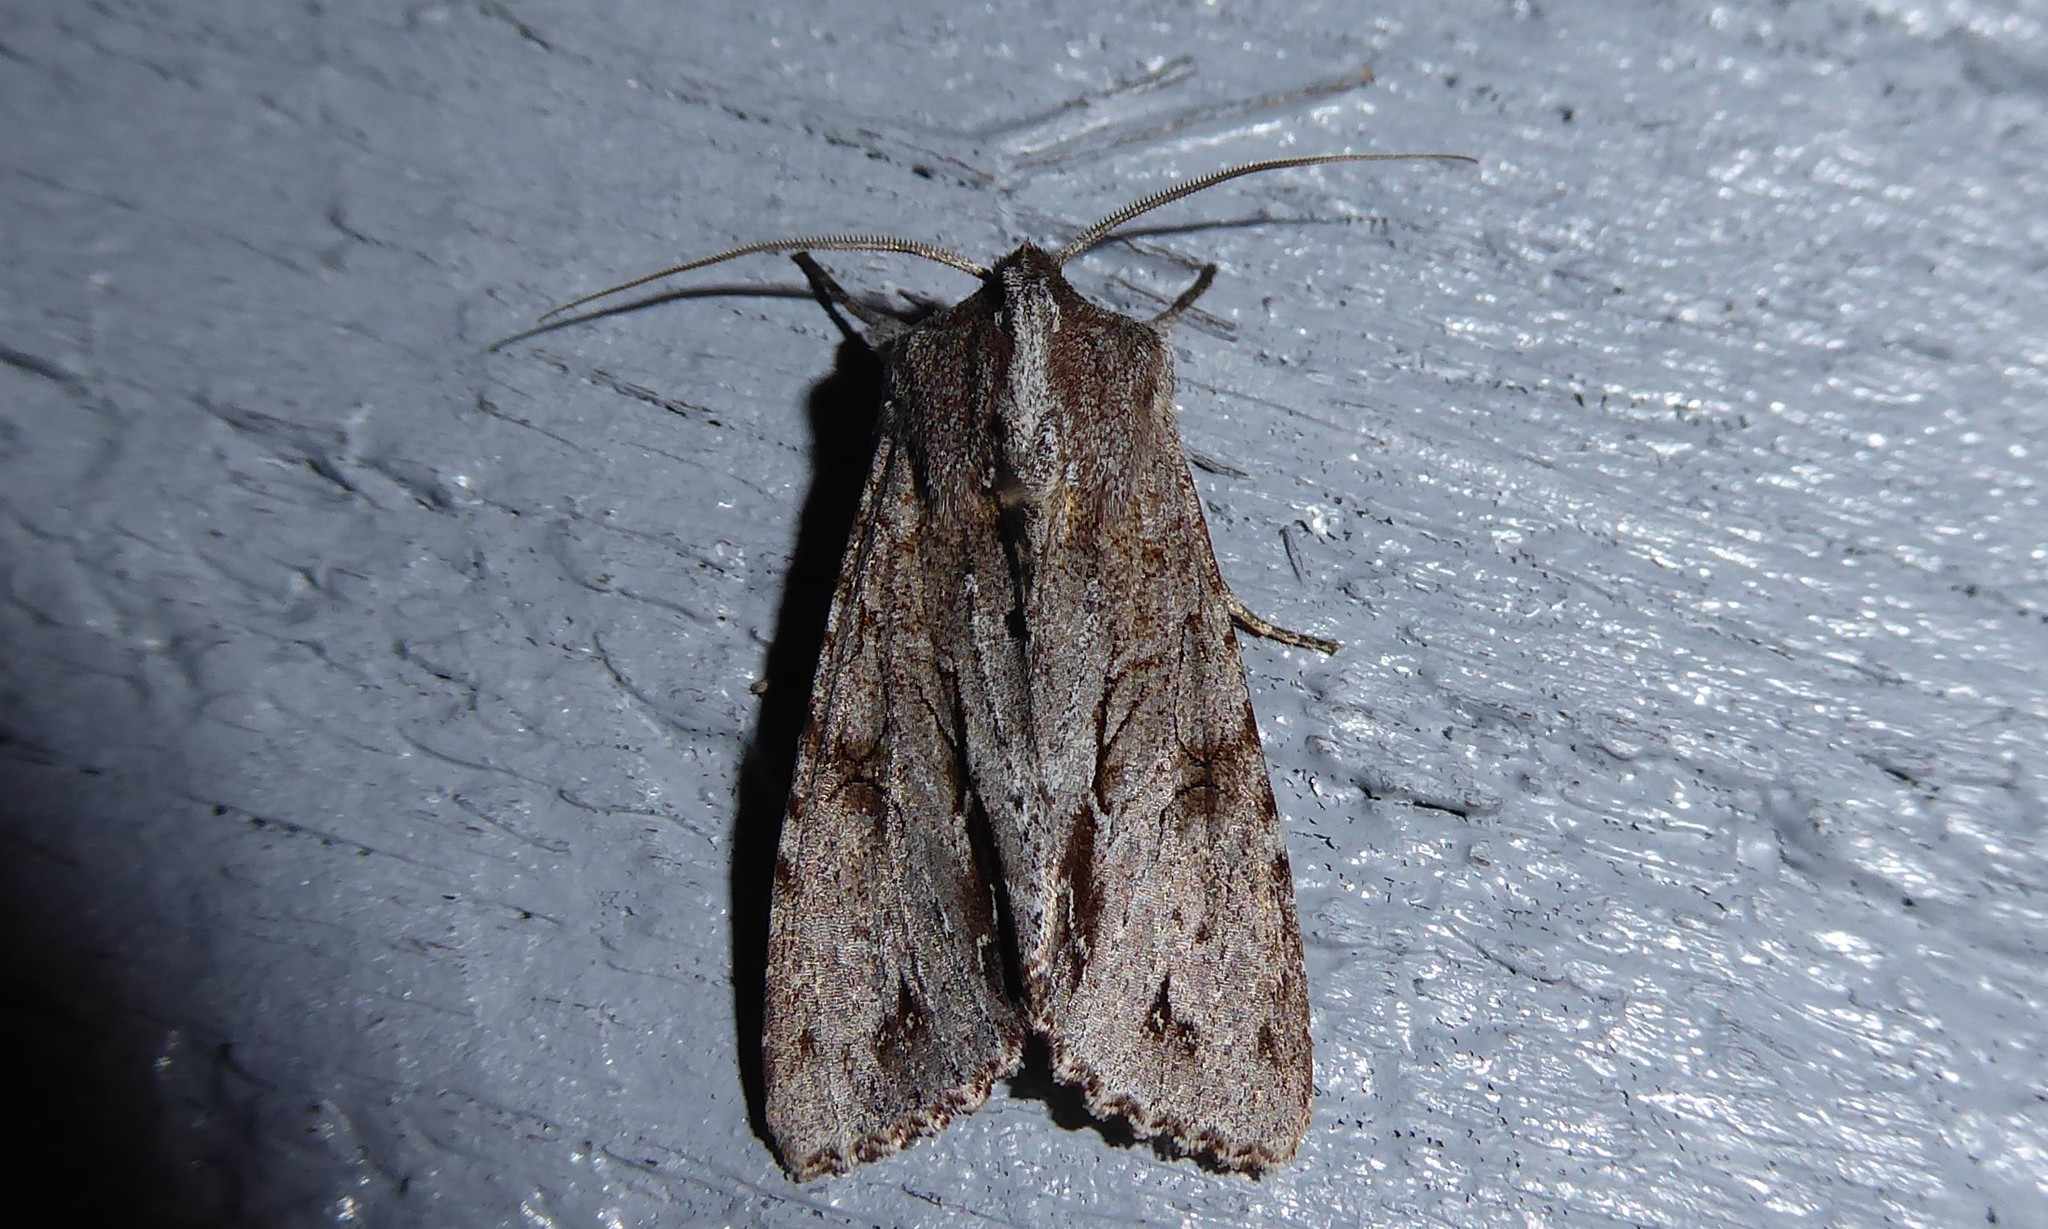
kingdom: Animalia
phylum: Arthropoda
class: Insecta
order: Lepidoptera
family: Noctuidae
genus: Ichneutica
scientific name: Ichneutica
